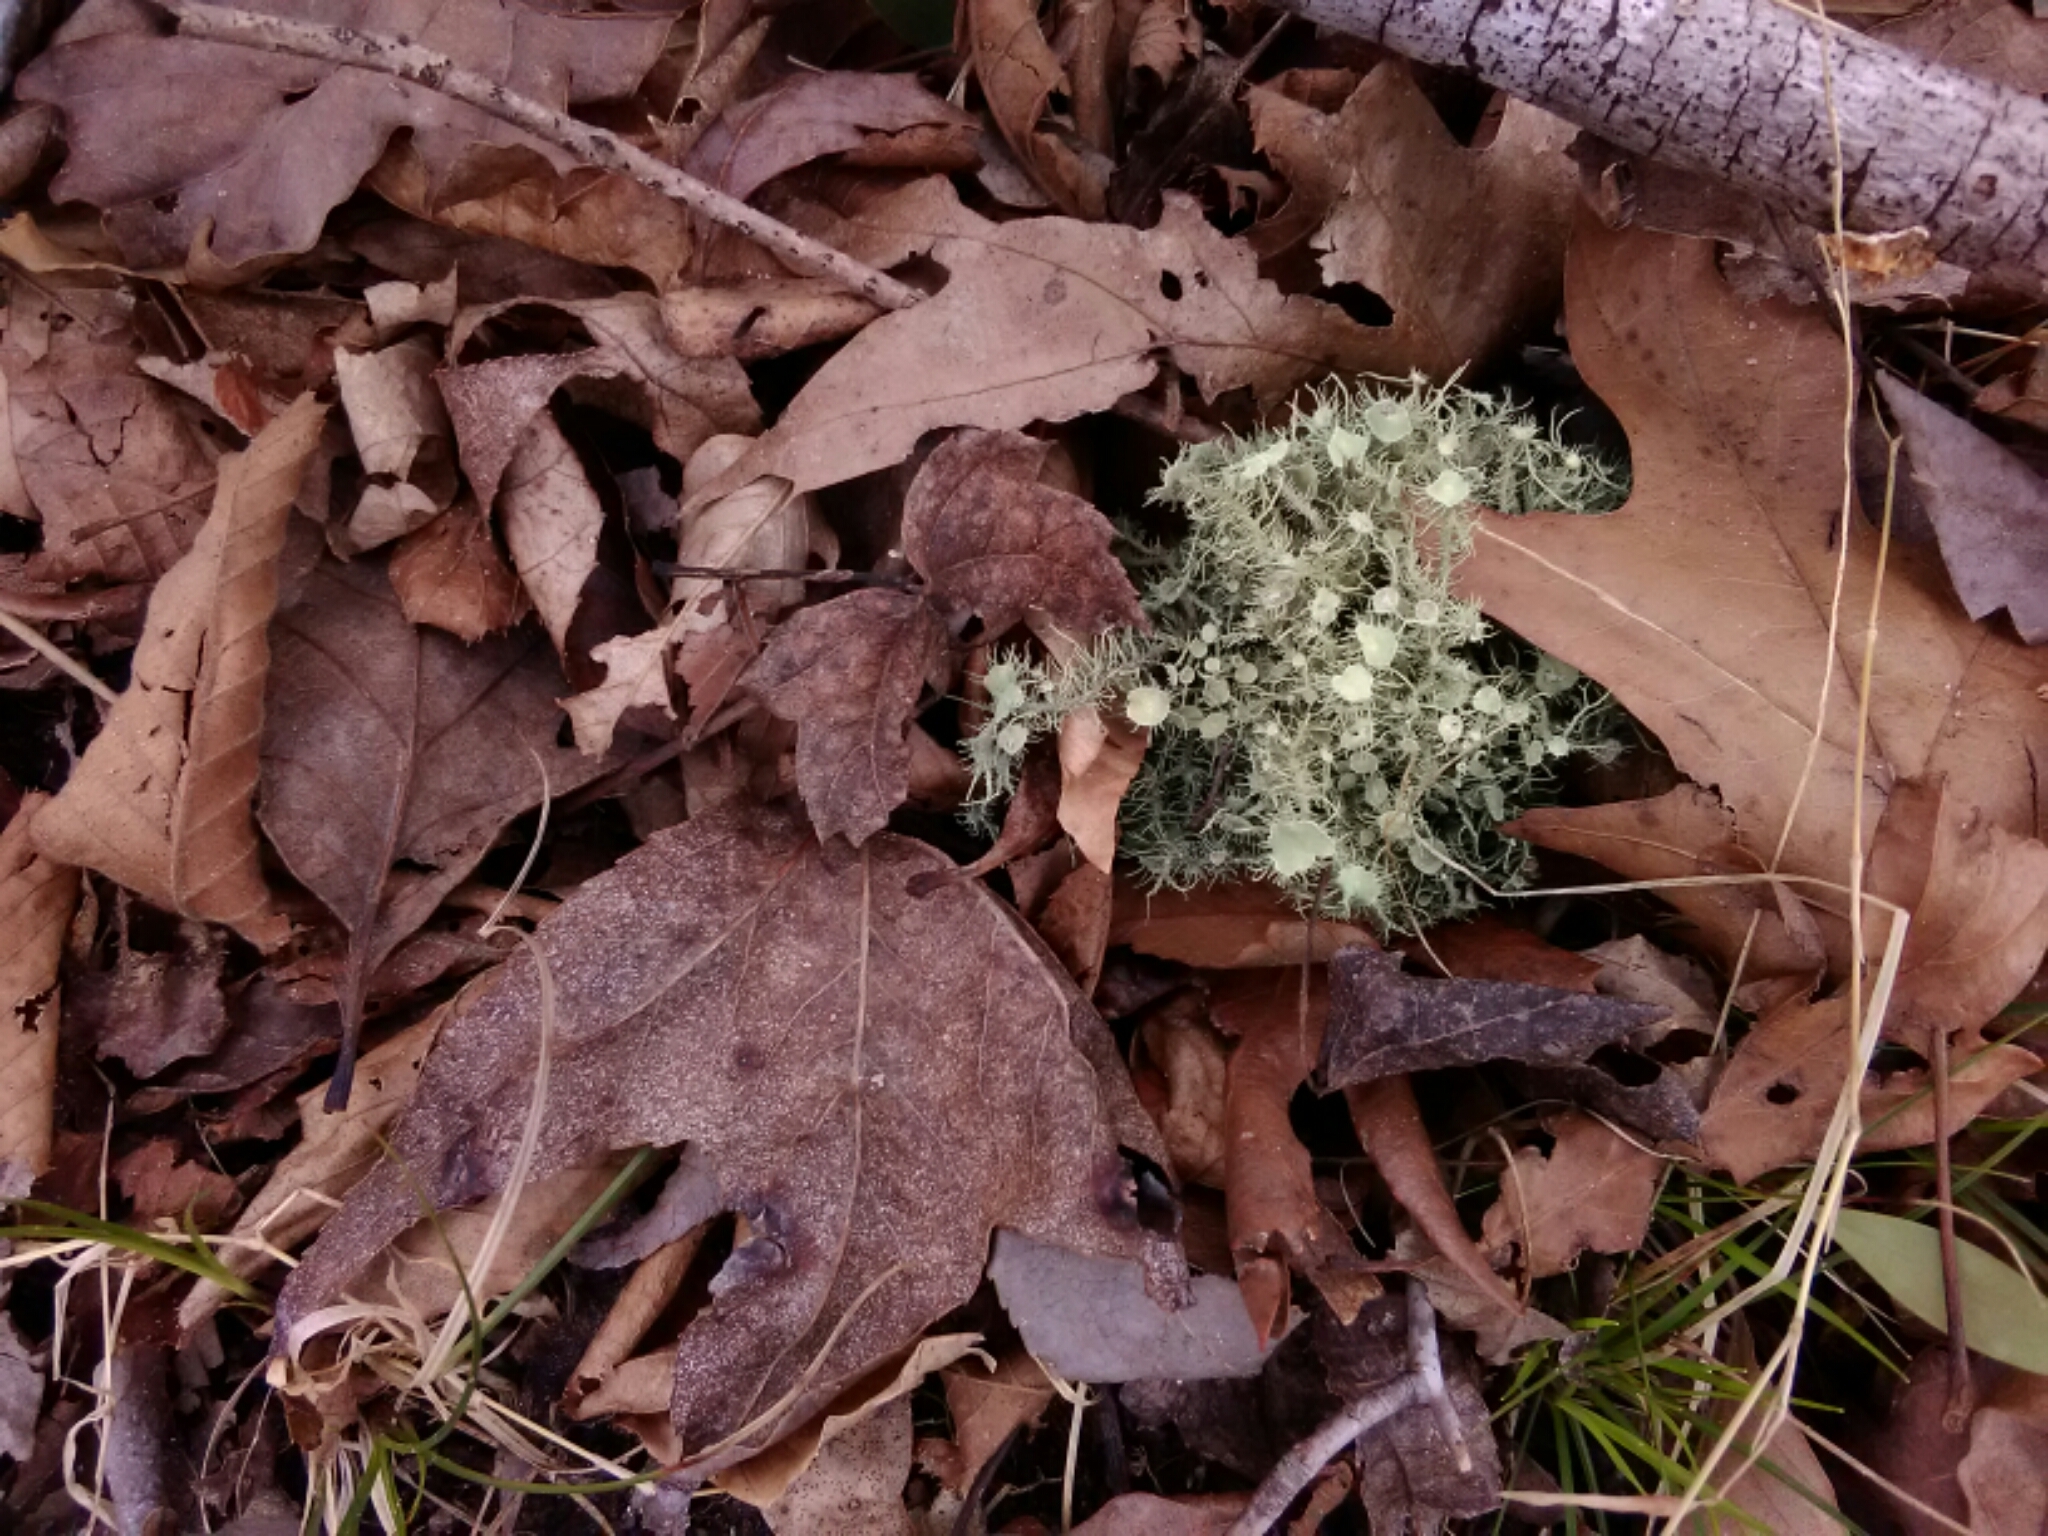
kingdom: Fungi
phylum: Ascomycota
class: Lecanoromycetes
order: Lecanorales
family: Parmeliaceae
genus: Usnea
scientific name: Usnea strigosa
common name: Bushy beard lichen
